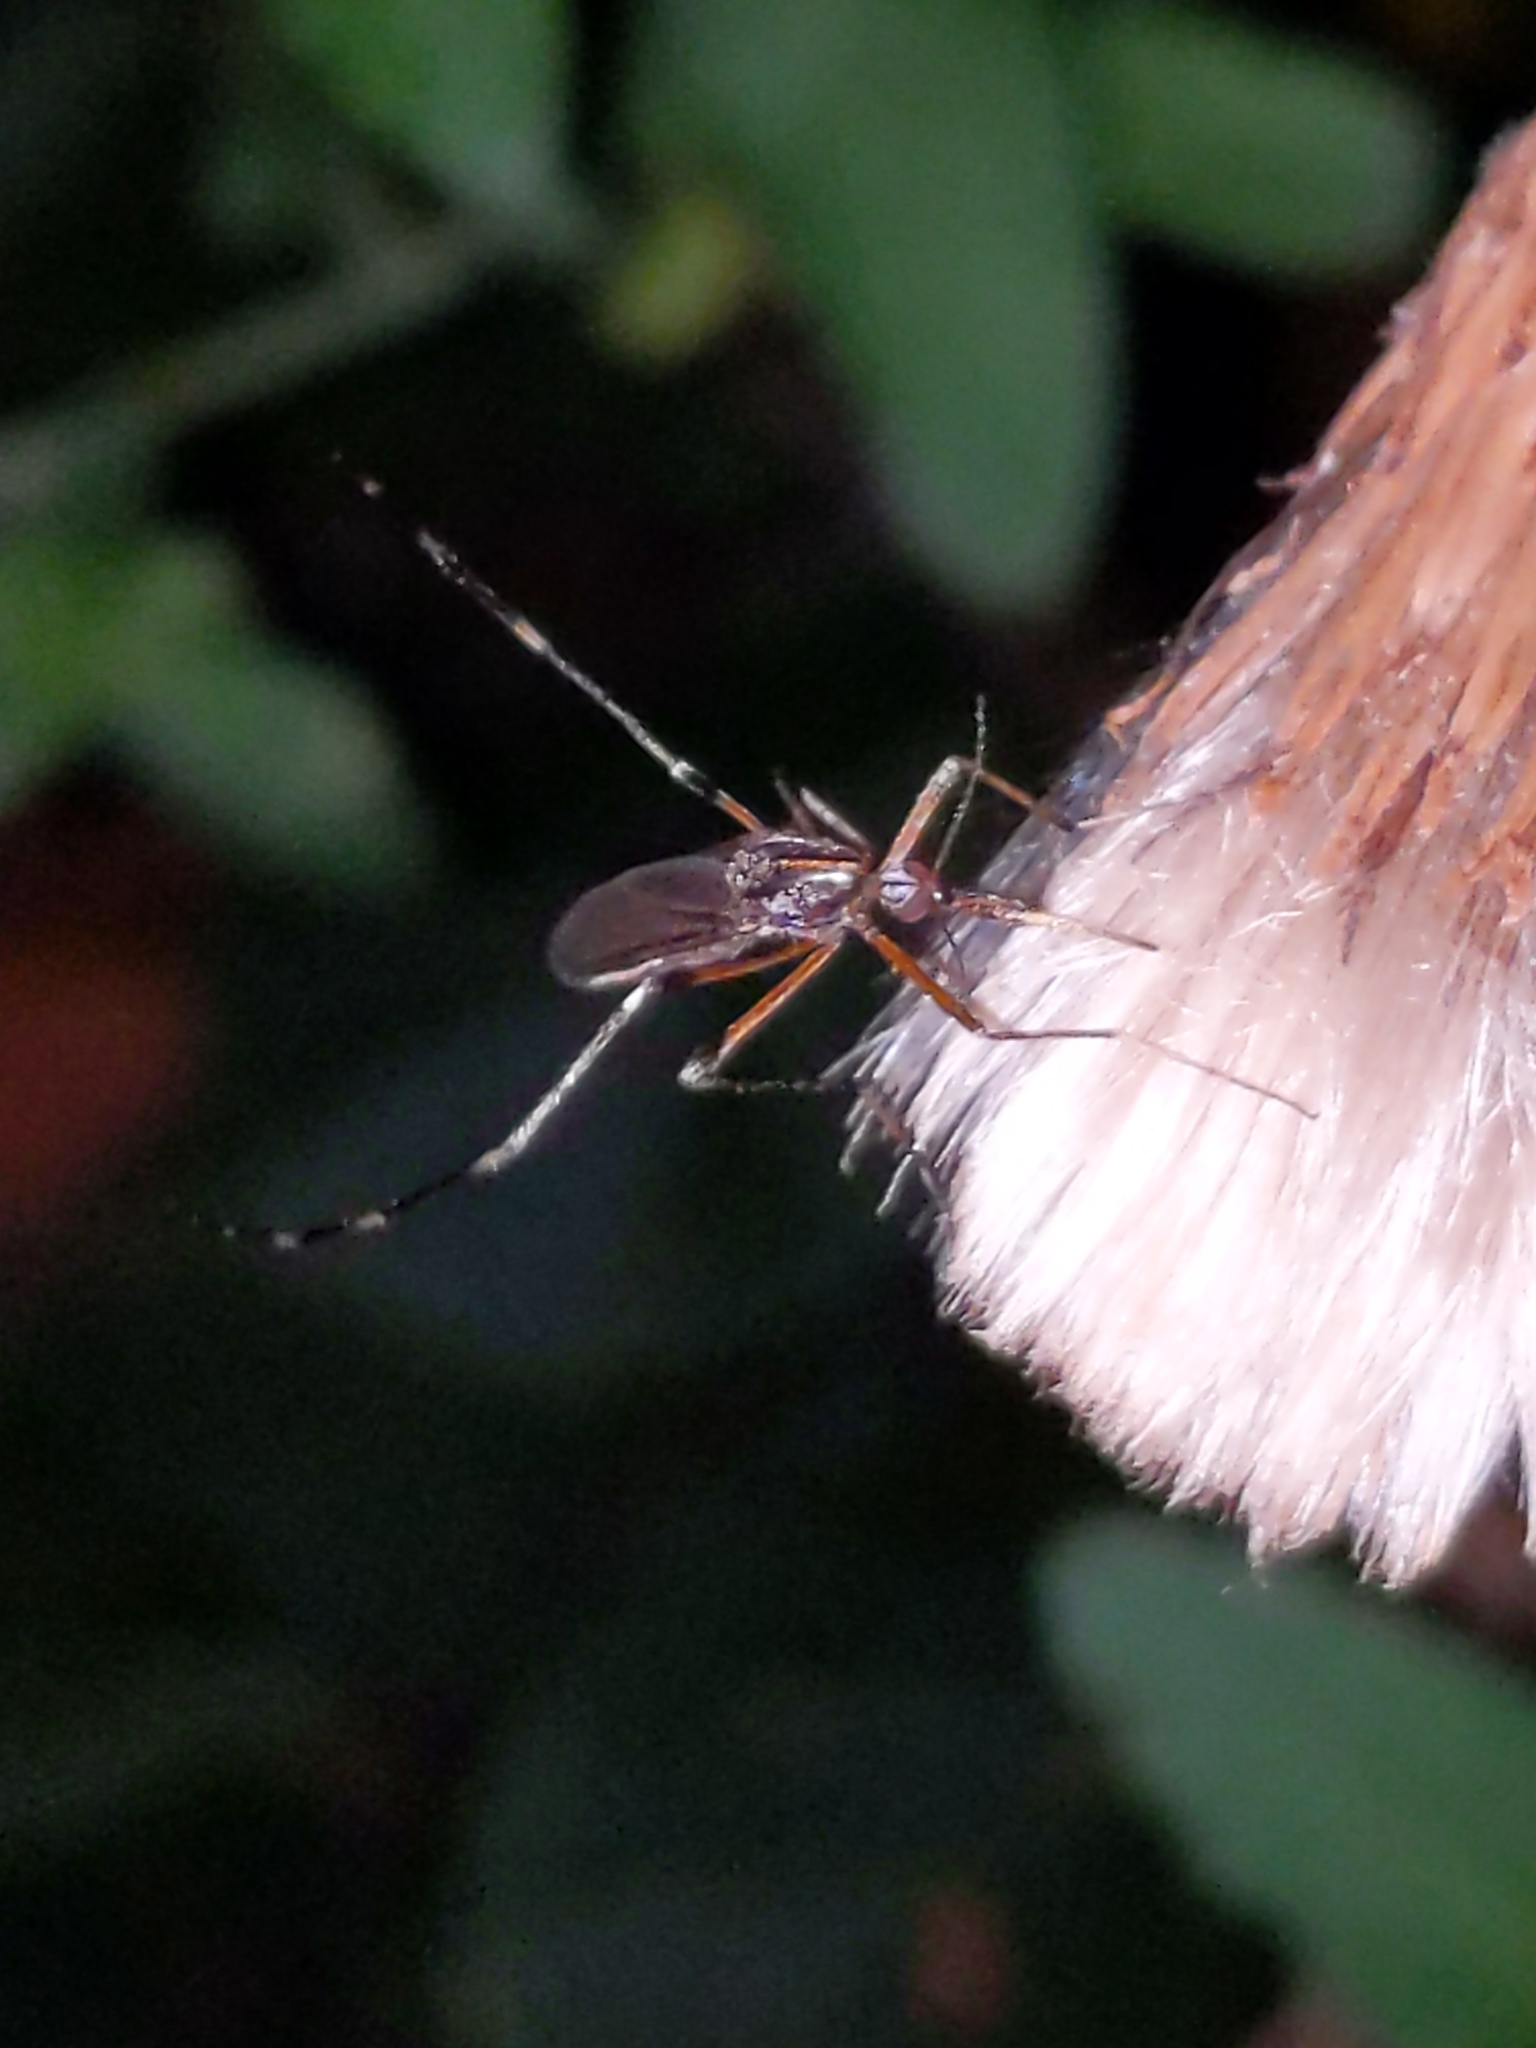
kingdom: Animalia
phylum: Arthropoda
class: Insecta
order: Diptera
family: Culicidae
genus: Psorophora
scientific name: Psorophora ciliata
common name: Gallinipper
